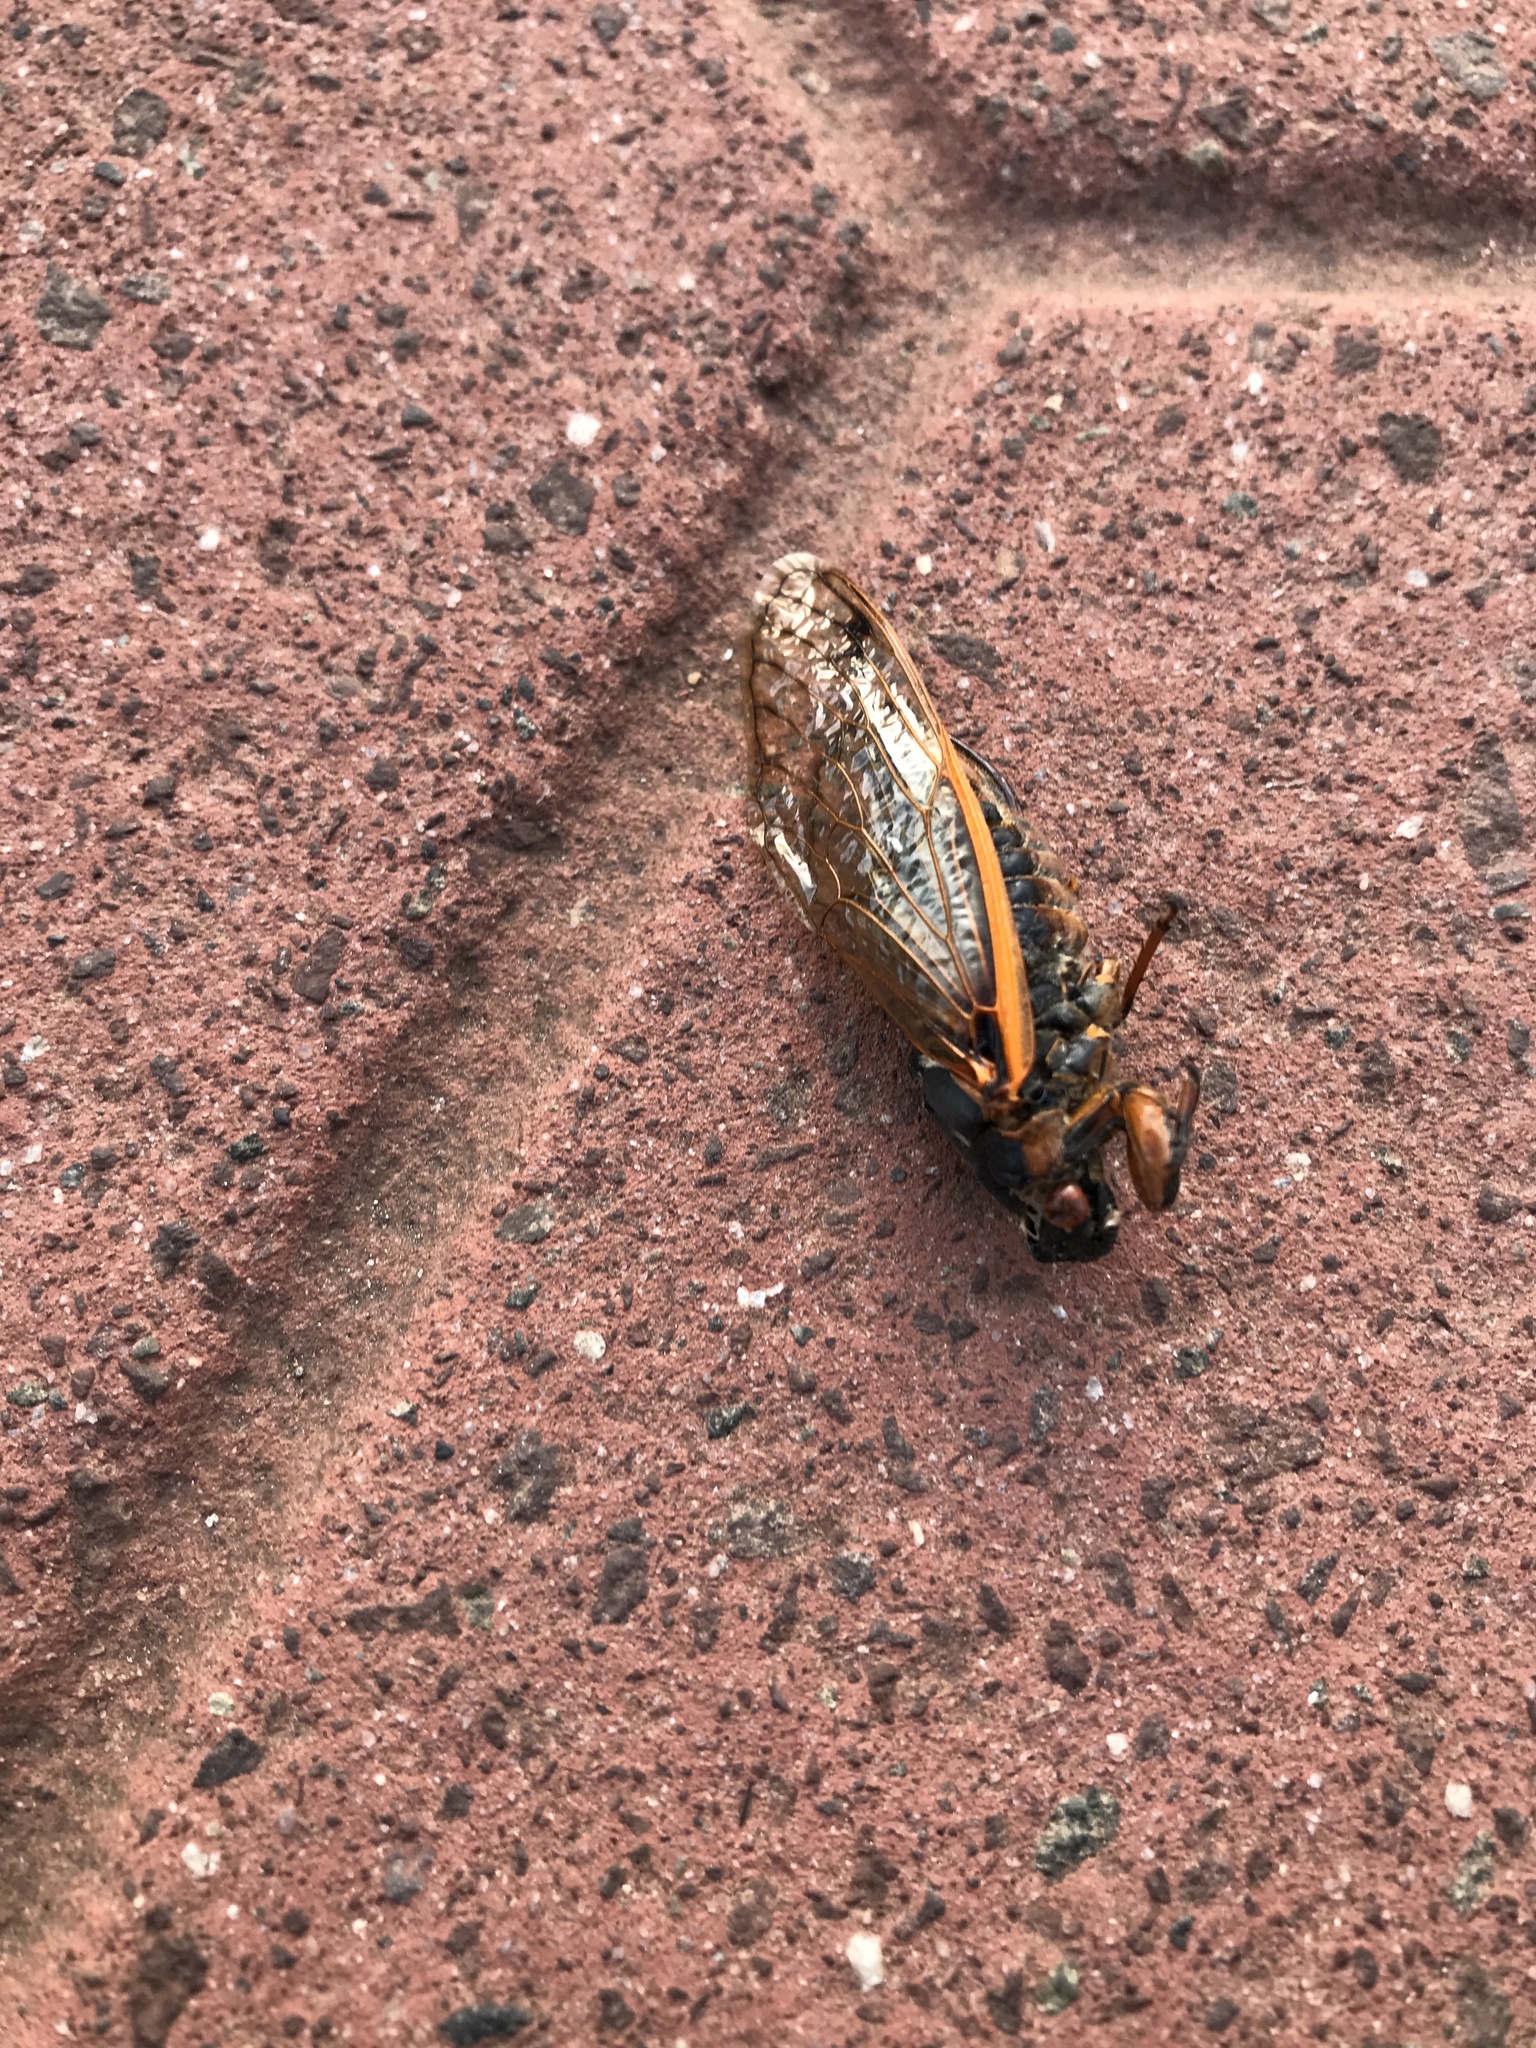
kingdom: Animalia
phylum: Arthropoda
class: Insecta
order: Hemiptera
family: Cicadidae
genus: Magicicada
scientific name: Magicicada septendecim
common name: Periodical cicada
